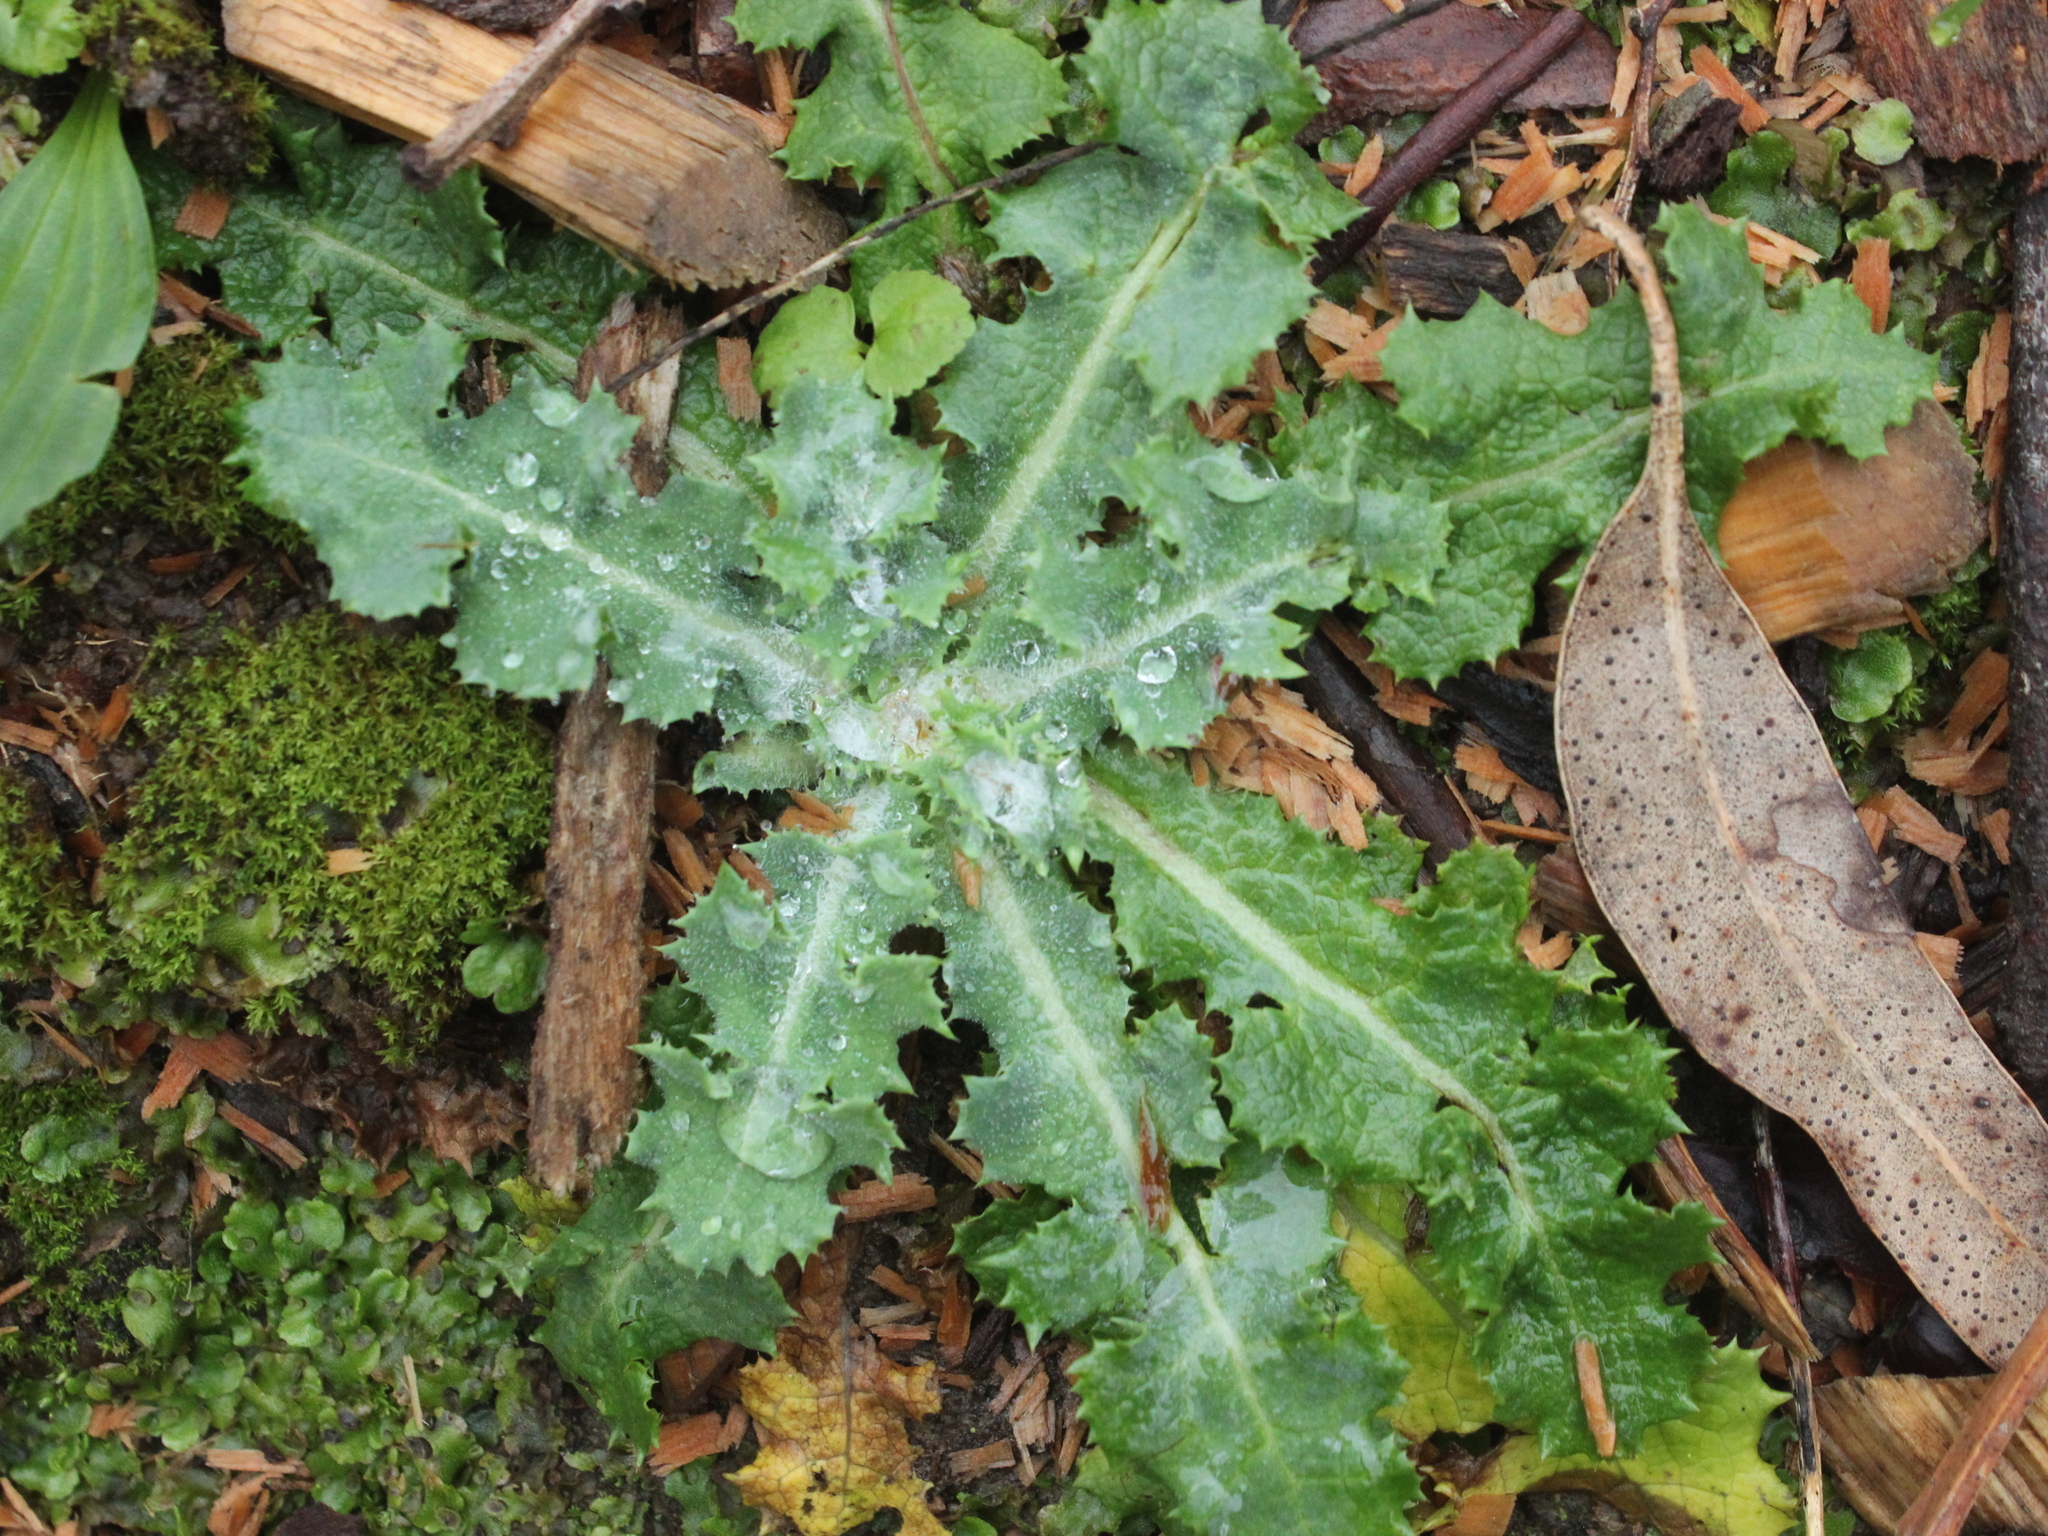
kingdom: Plantae
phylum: Tracheophyta
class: Magnoliopsida
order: Asterales
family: Asteraceae
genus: Sonchus
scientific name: Sonchus asper
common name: Prickly sow-thistle
